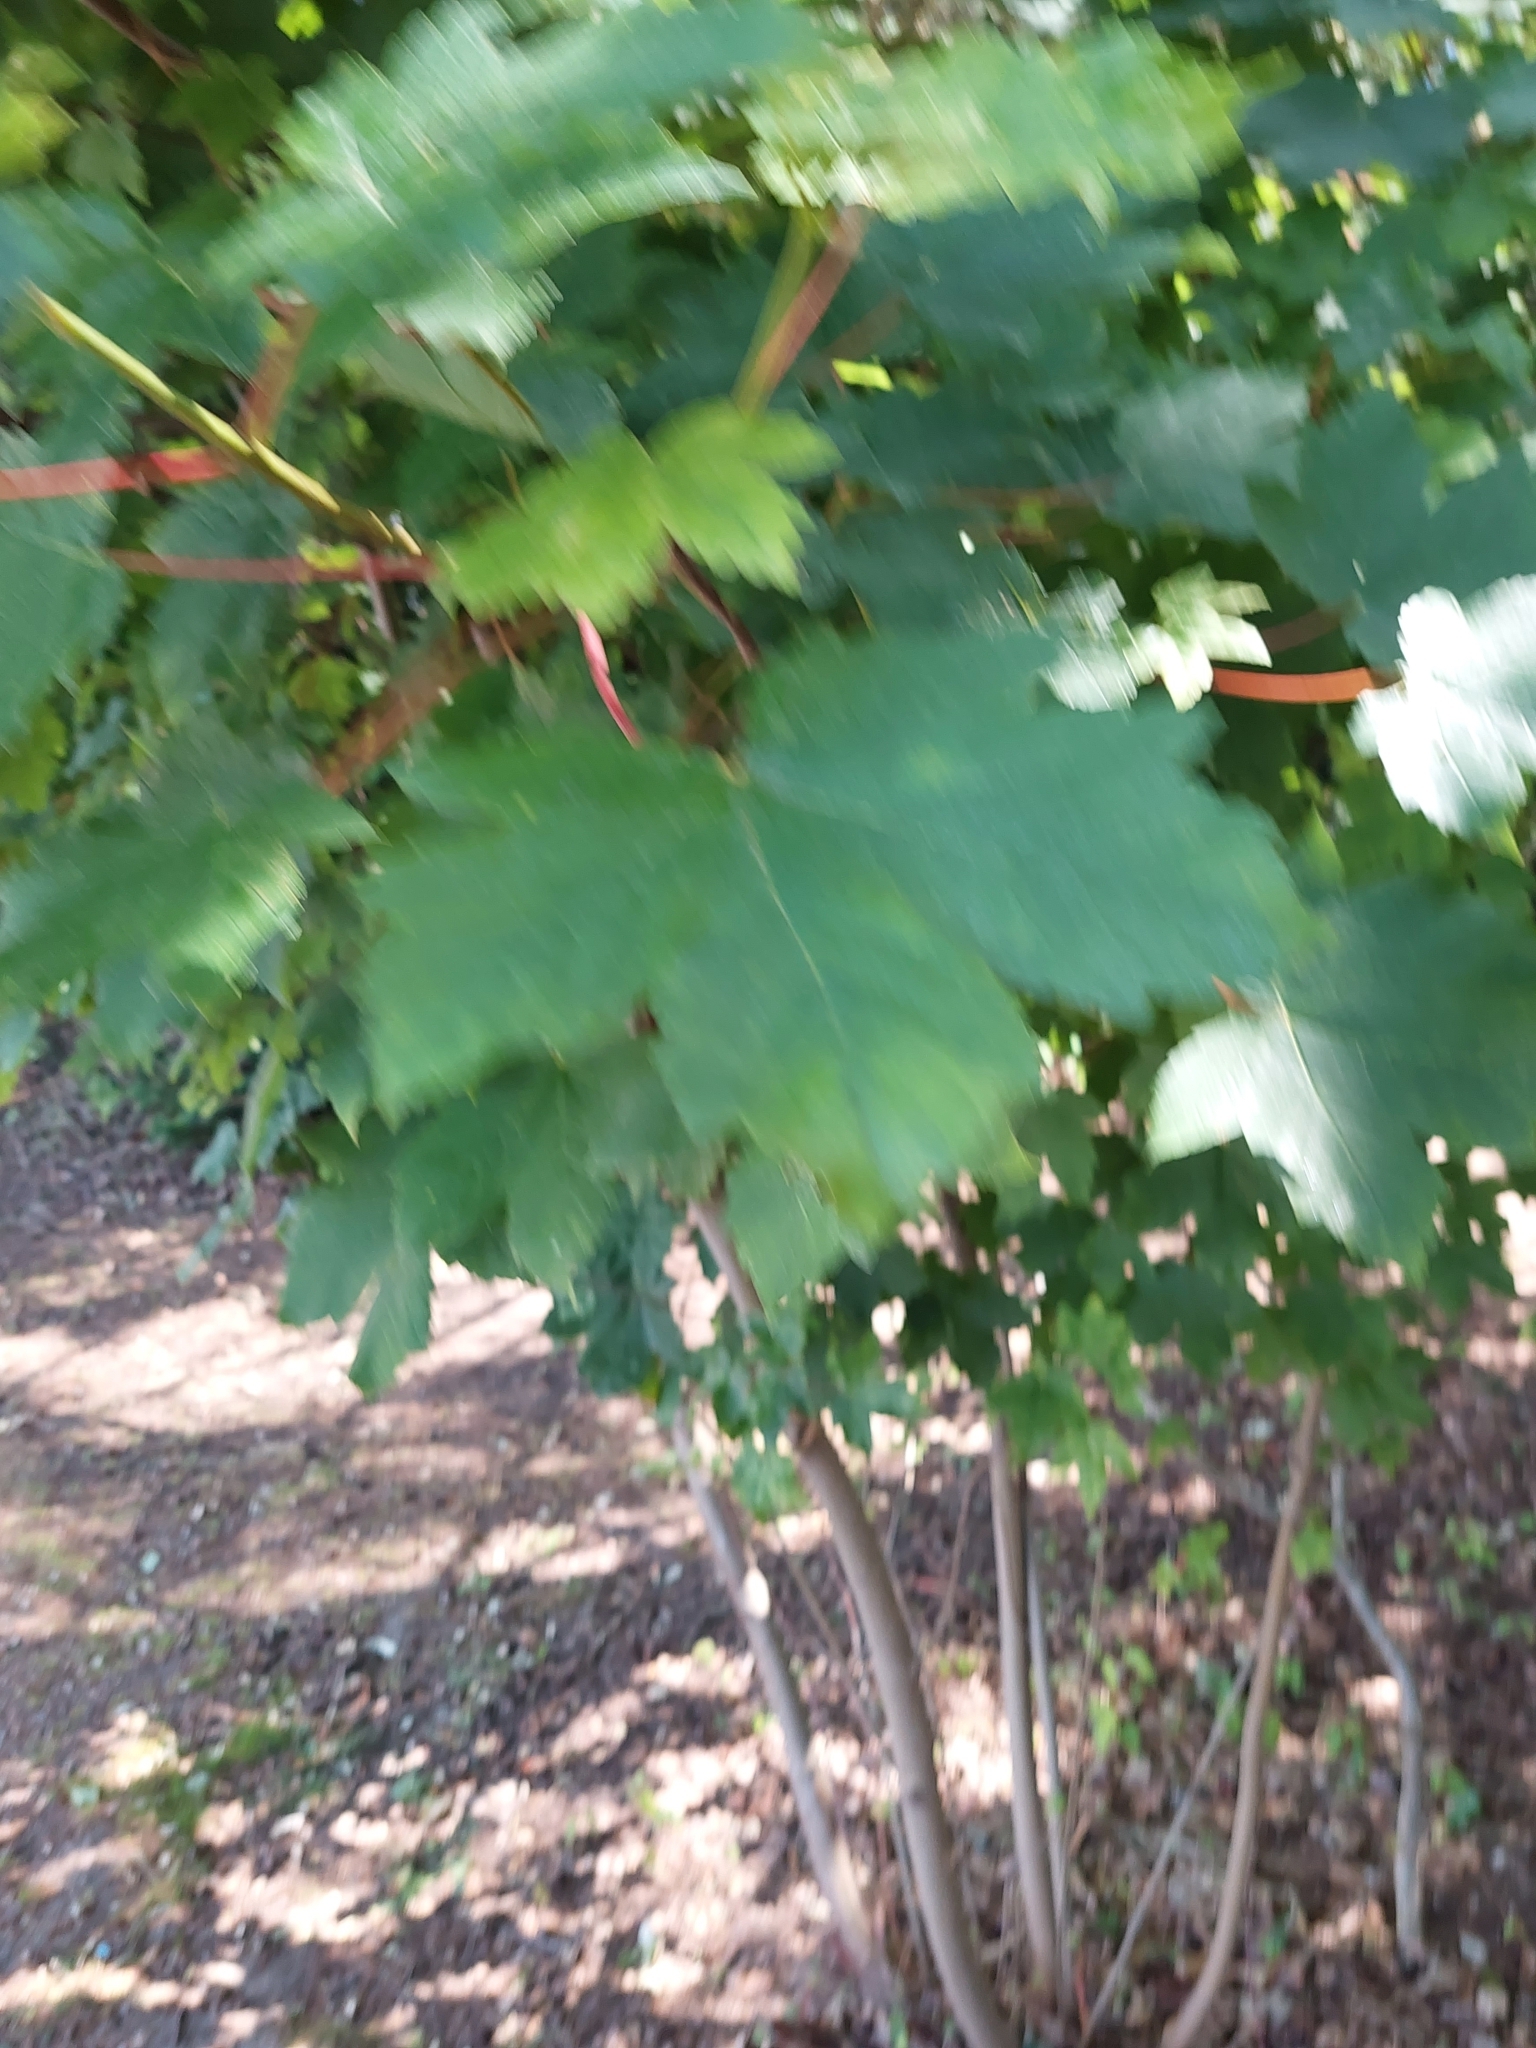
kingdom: Plantae
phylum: Tracheophyta
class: Magnoliopsida
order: Sapindales
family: Sapindaceae
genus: Acer
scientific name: Acer pseudoplatanus
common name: Sycamore
